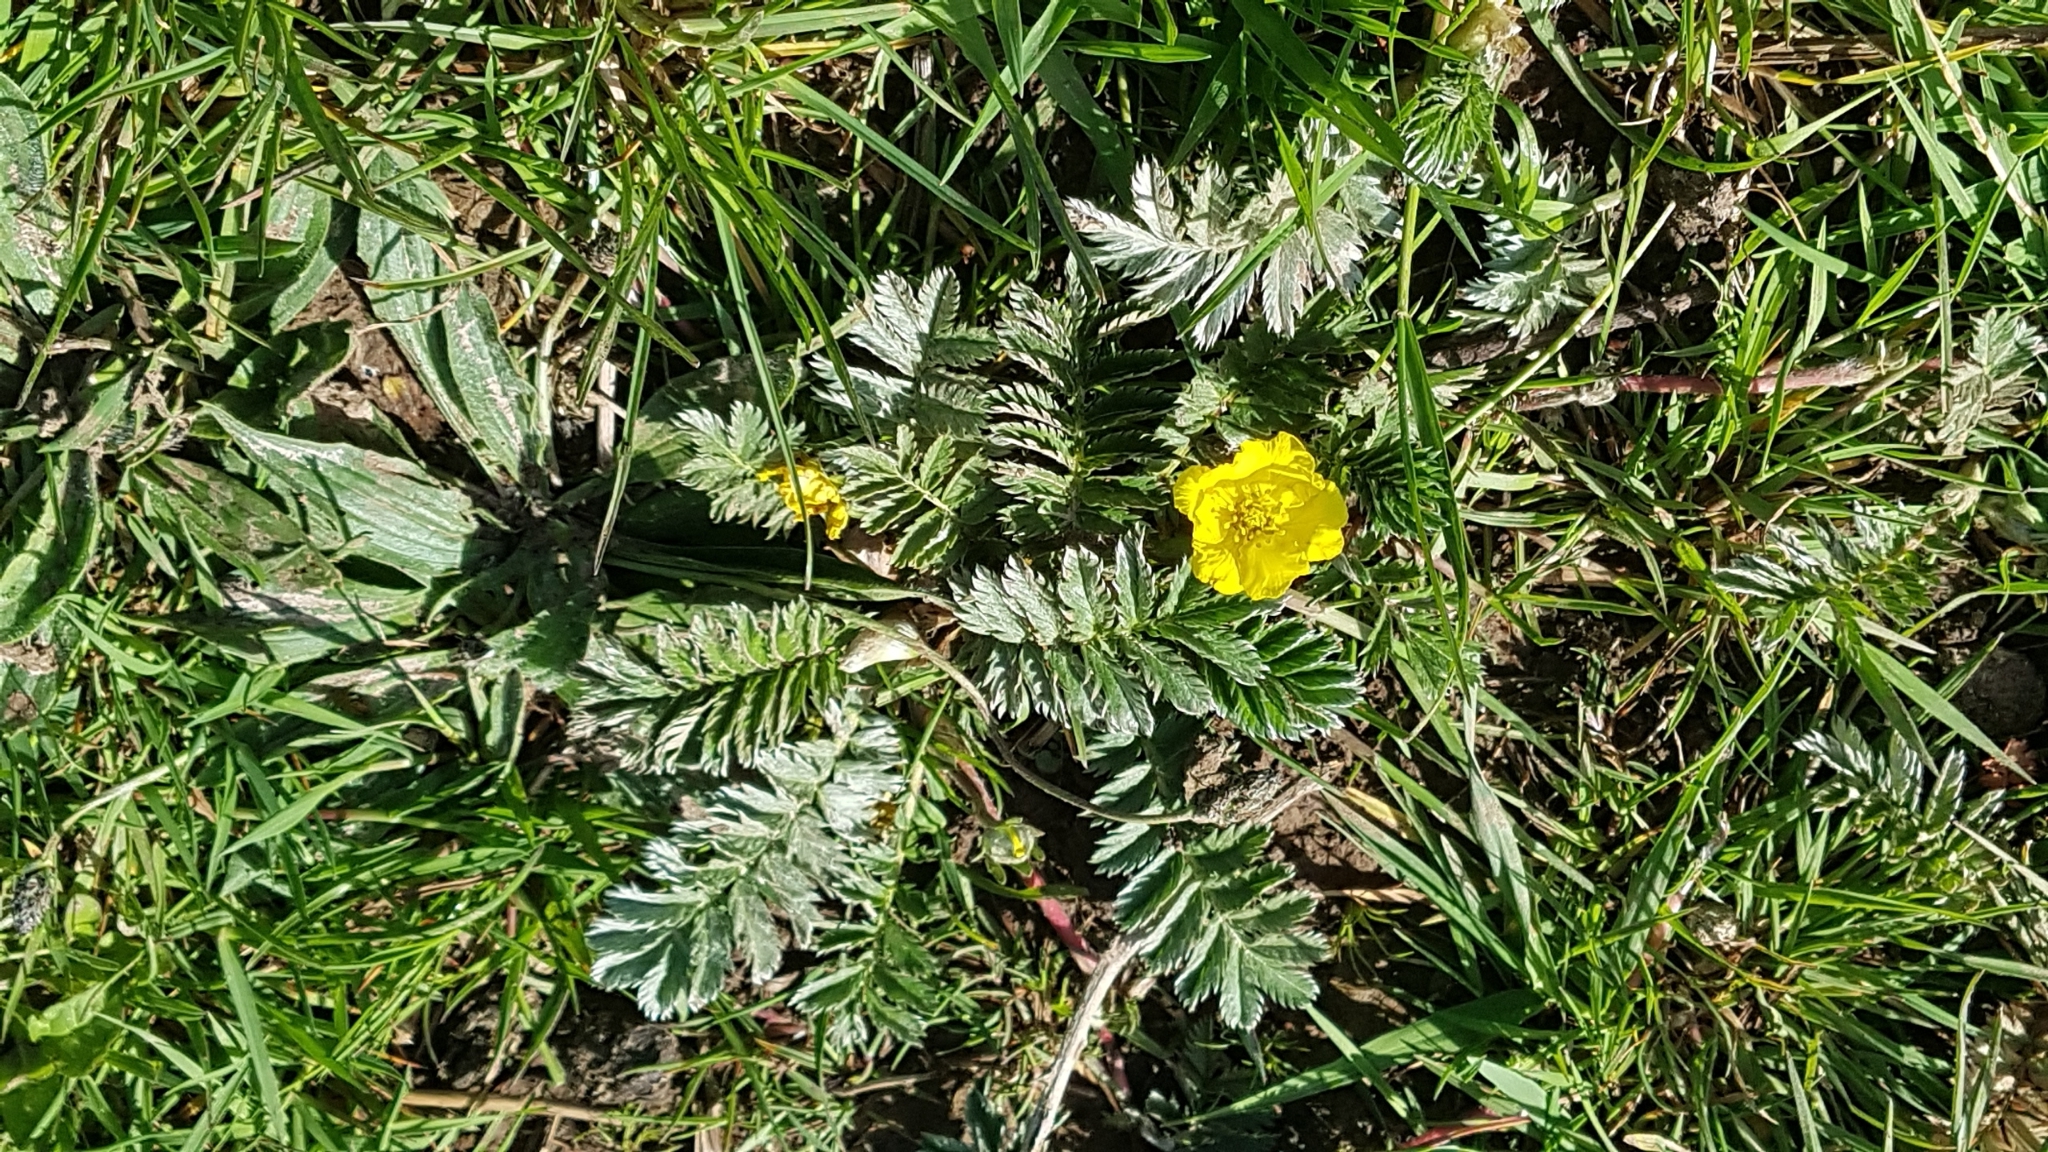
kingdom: Plantae
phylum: Tracheophyta
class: Magnoliopsida
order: Rosales
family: Rosaceae
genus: Argentina
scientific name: Argentina anserina
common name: Common silverweed
